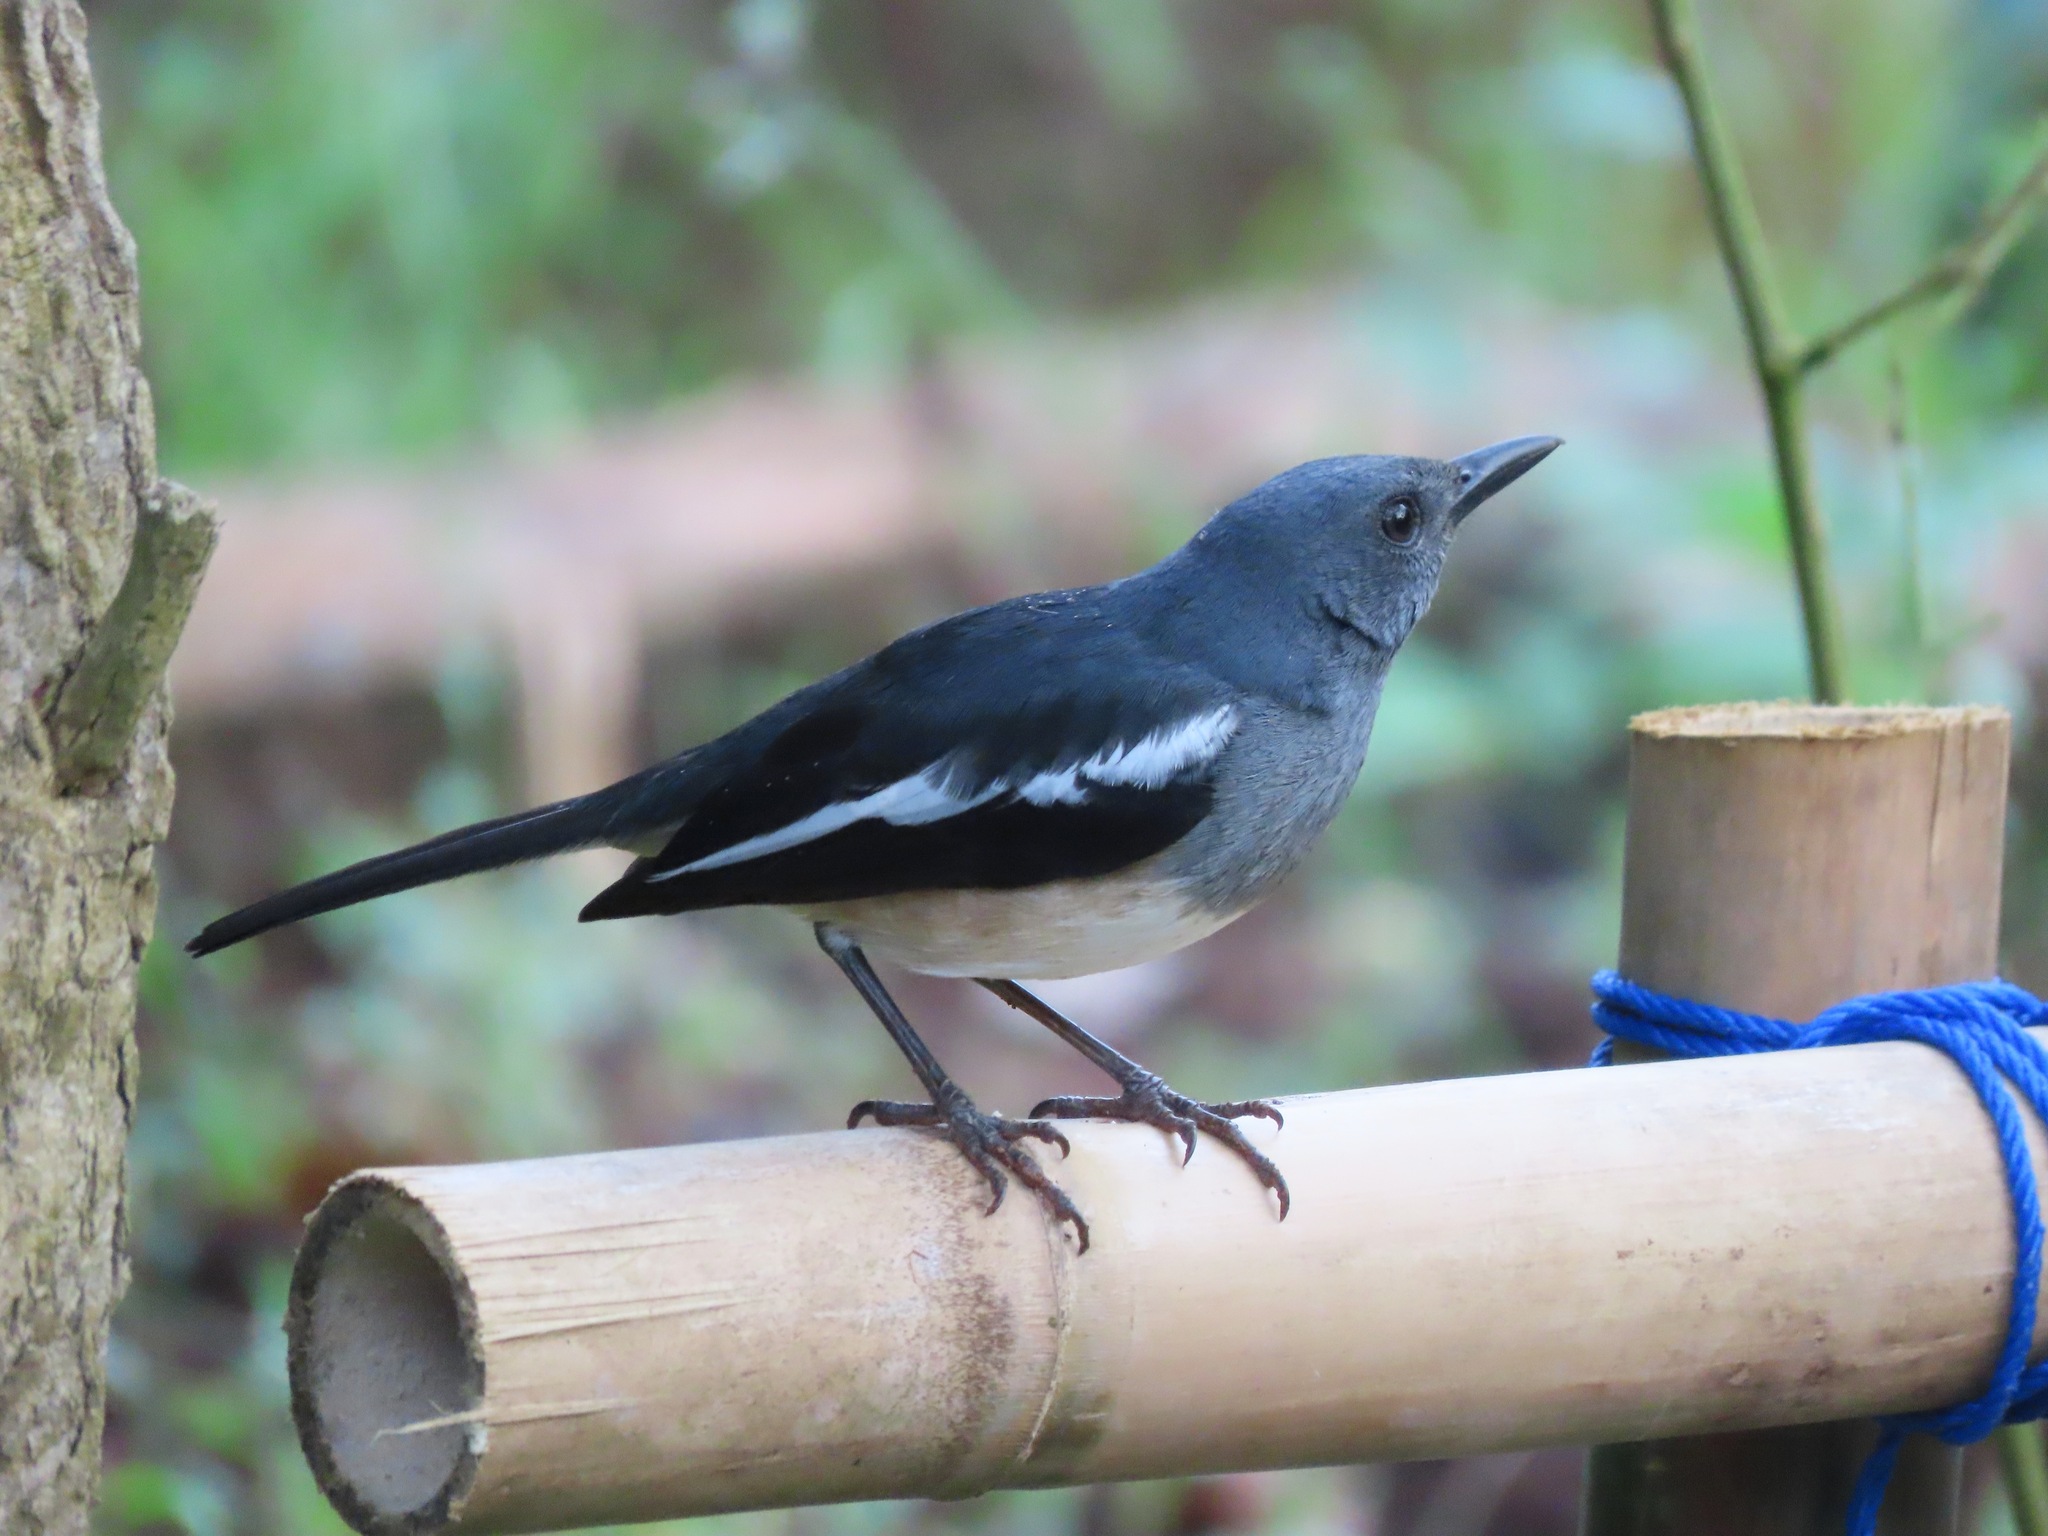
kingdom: Animalia
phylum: Chordata
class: Aves
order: Passeriformes
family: Muscicapidae
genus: Copsychus
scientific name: Copsychus saularis
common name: Oriental magpie-robin
